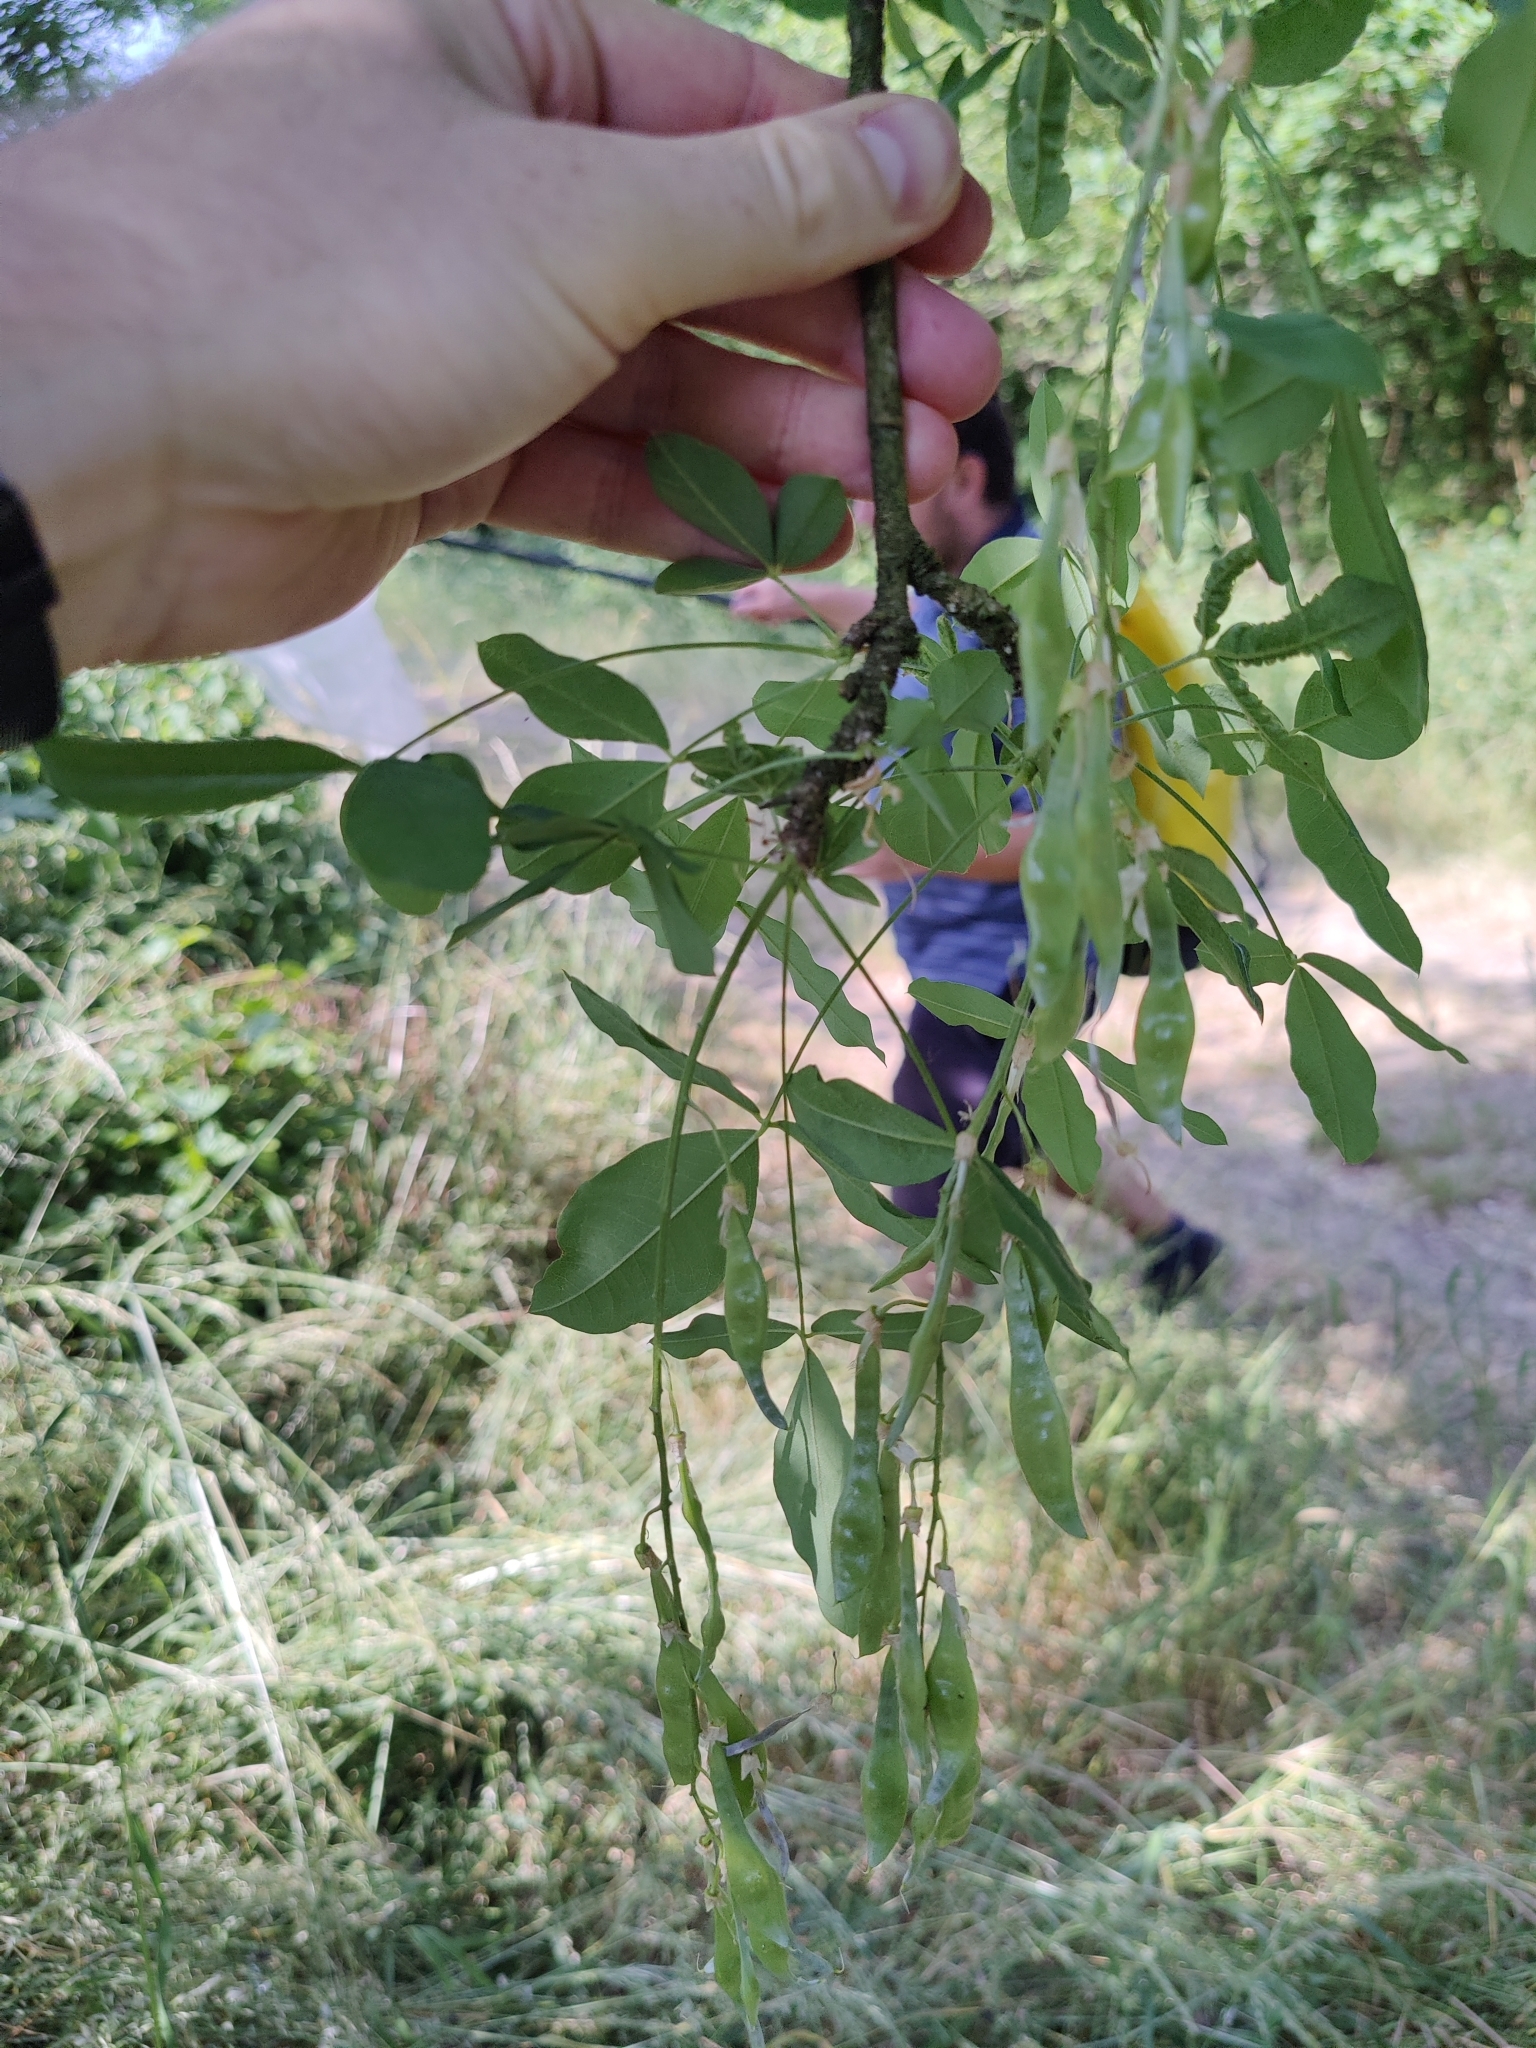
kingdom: Plantae
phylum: Tracheophyta
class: Magnoliopsida
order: Fabales
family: Fabaceae
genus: Laburnum
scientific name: Laburnum anagyroides
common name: Laburnum
